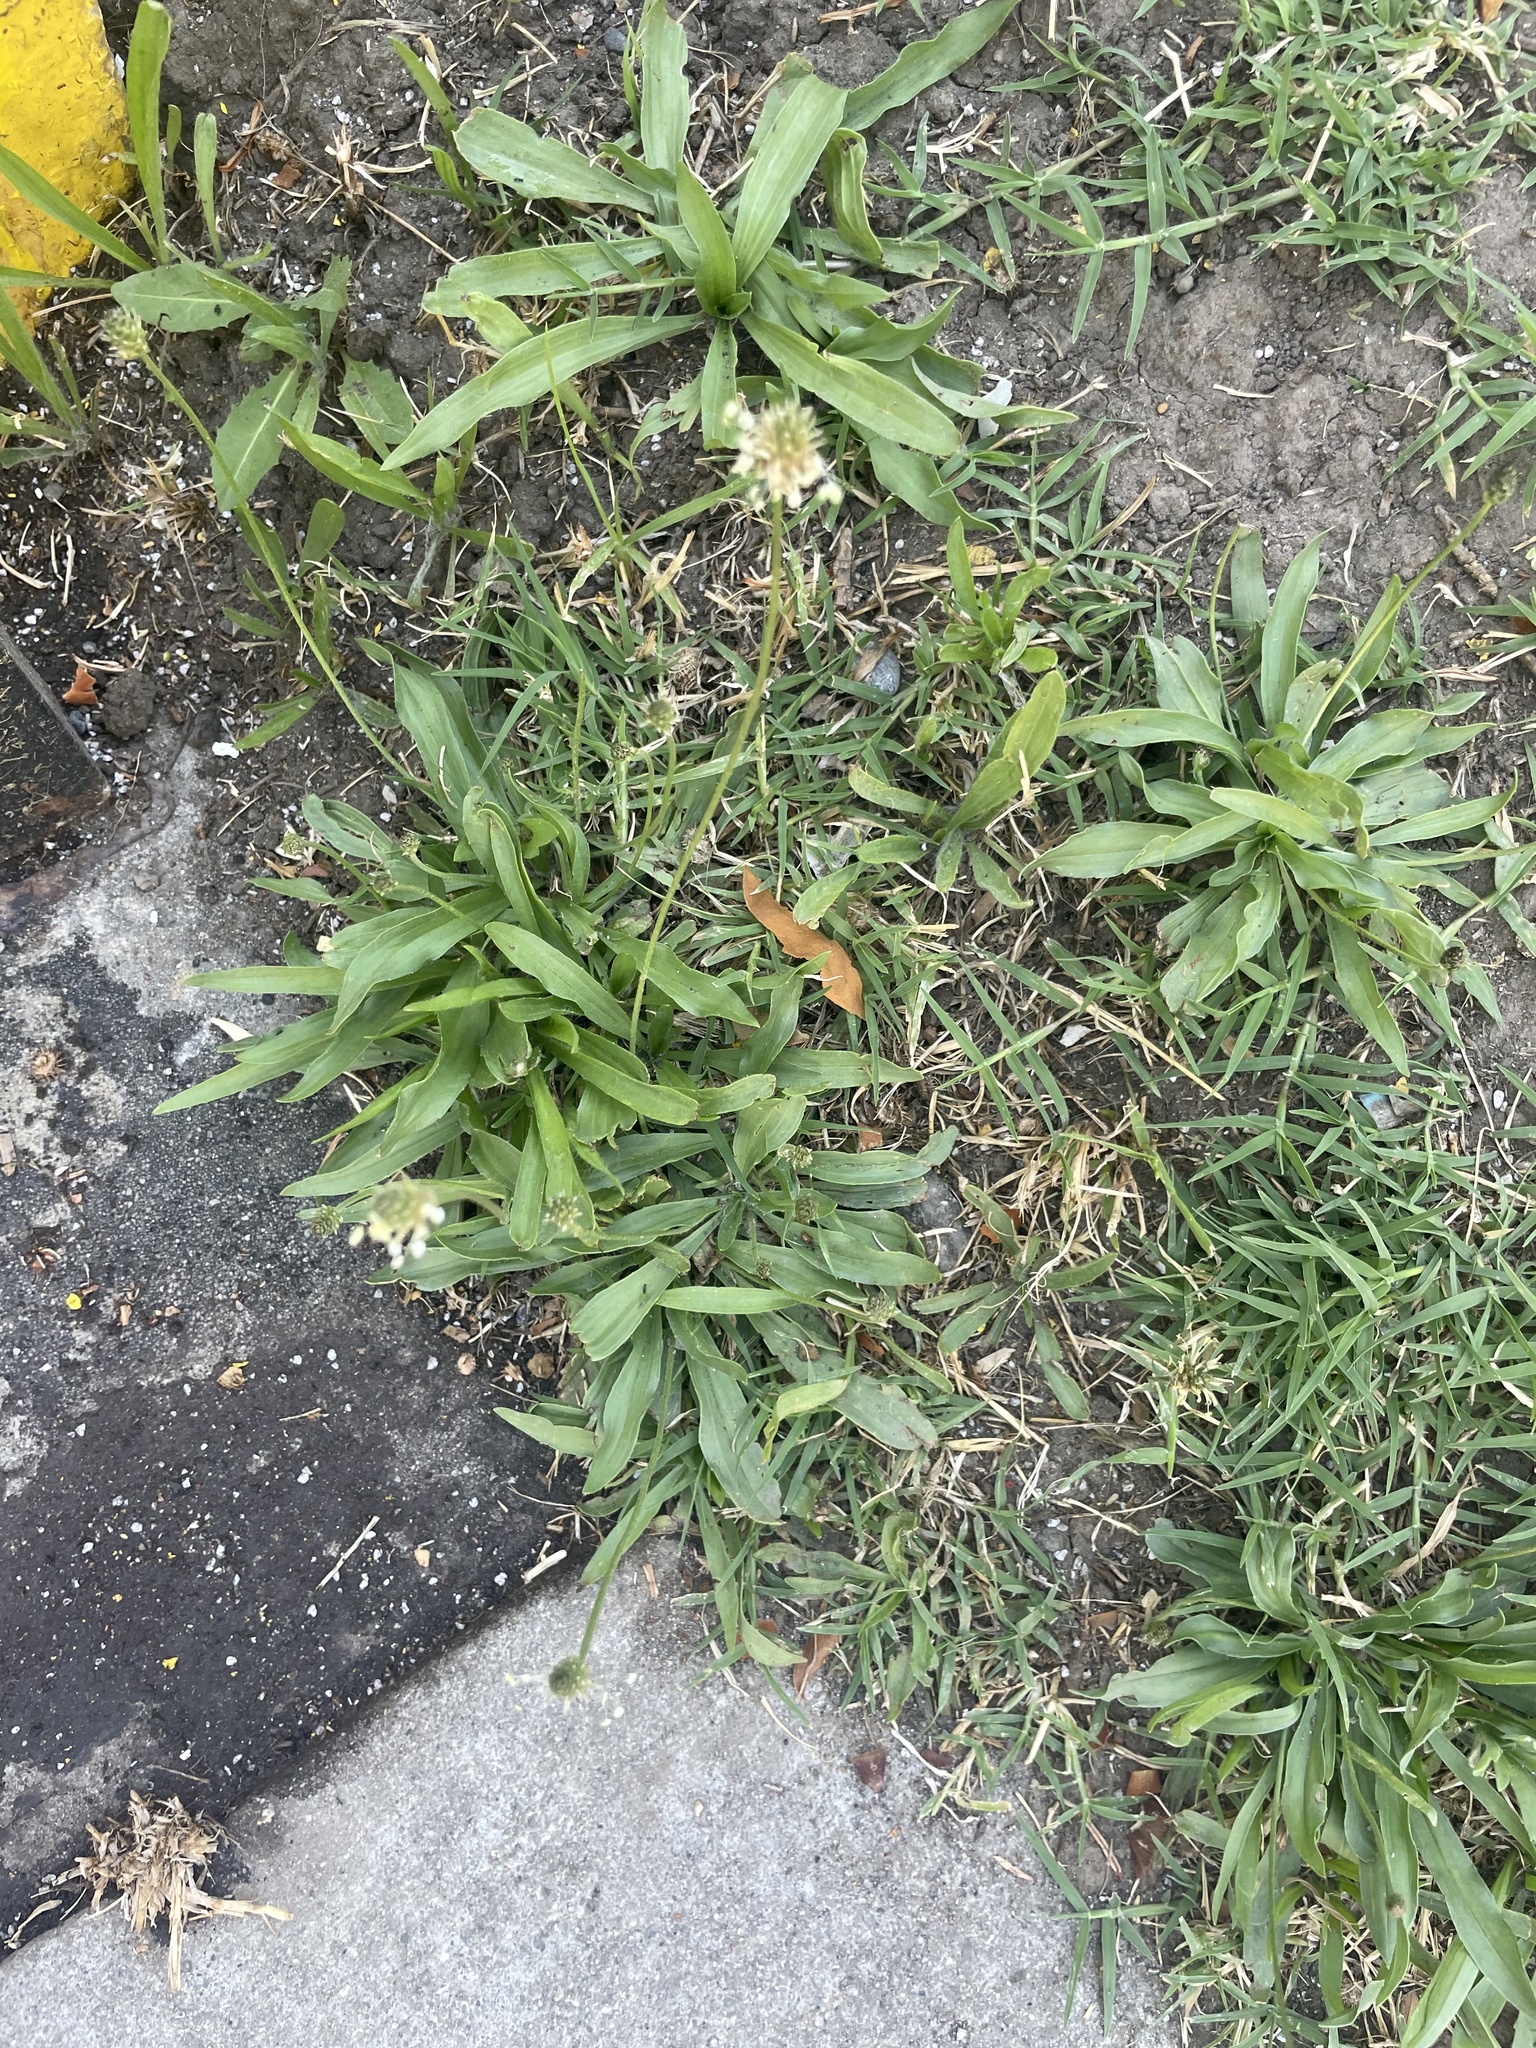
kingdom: Plantae
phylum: Tracheophyta
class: Magnoliopsida
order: Lamiales
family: Plantaginaceae
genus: Plantago
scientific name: Plantago lanceolata
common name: Ribwort plantain
